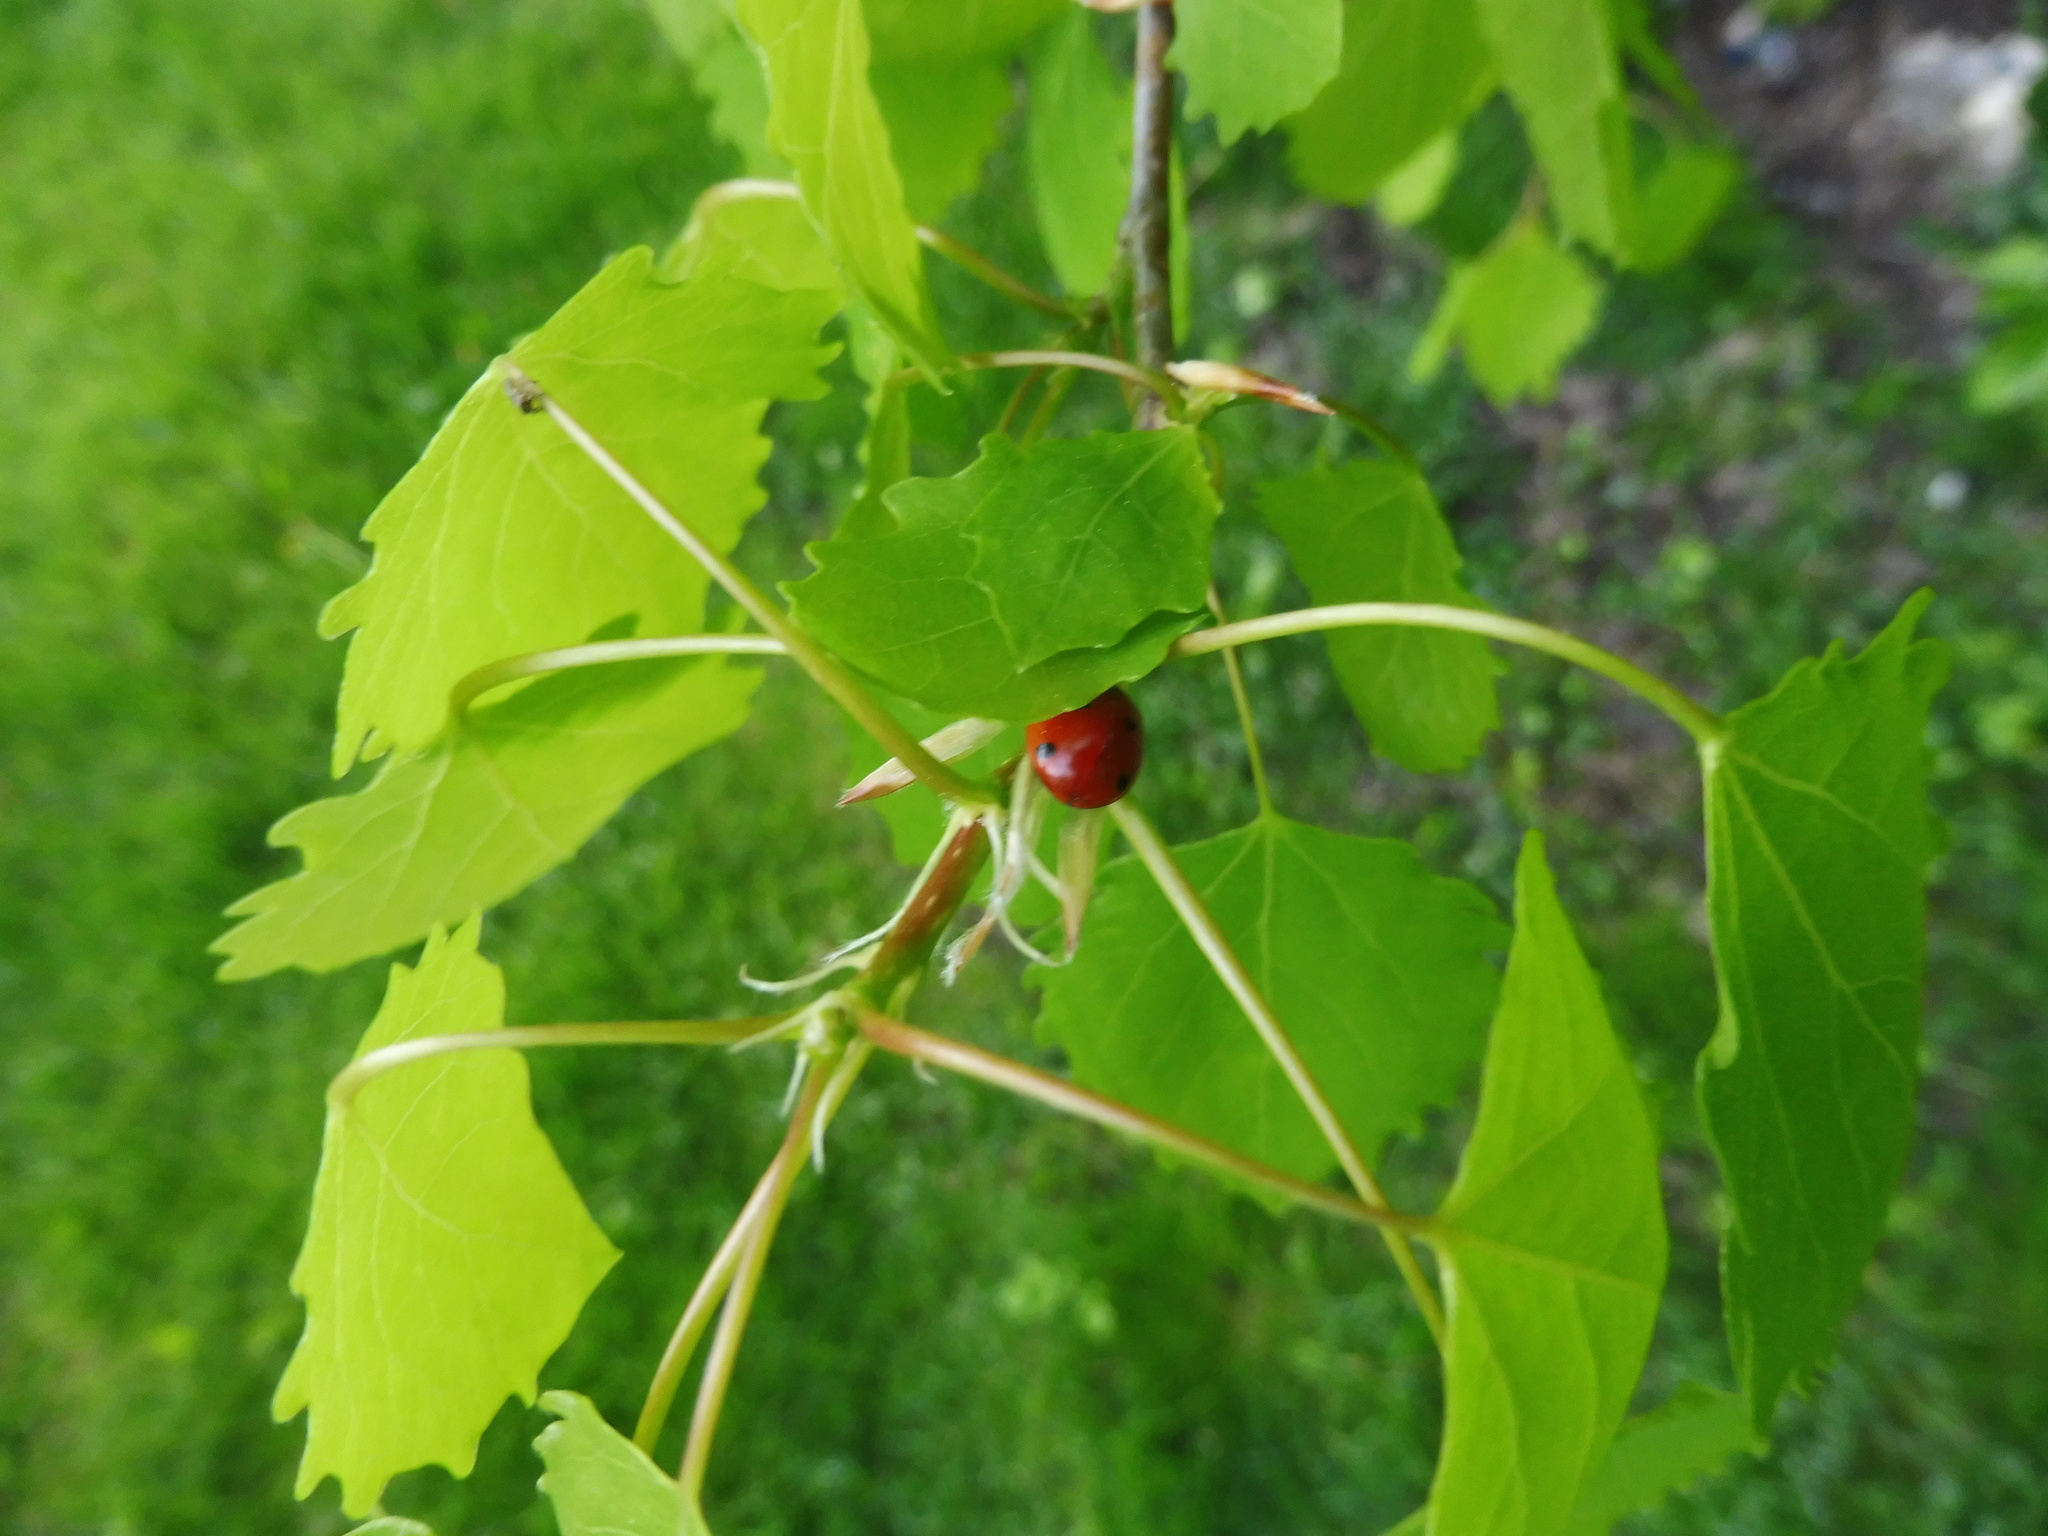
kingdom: Animalia
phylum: Arthropoda
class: Insecta
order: Coleoptera
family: Coccinellidae
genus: Coccinella
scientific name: Coccinella septempunctata
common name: Sevenspotted lady beetle
